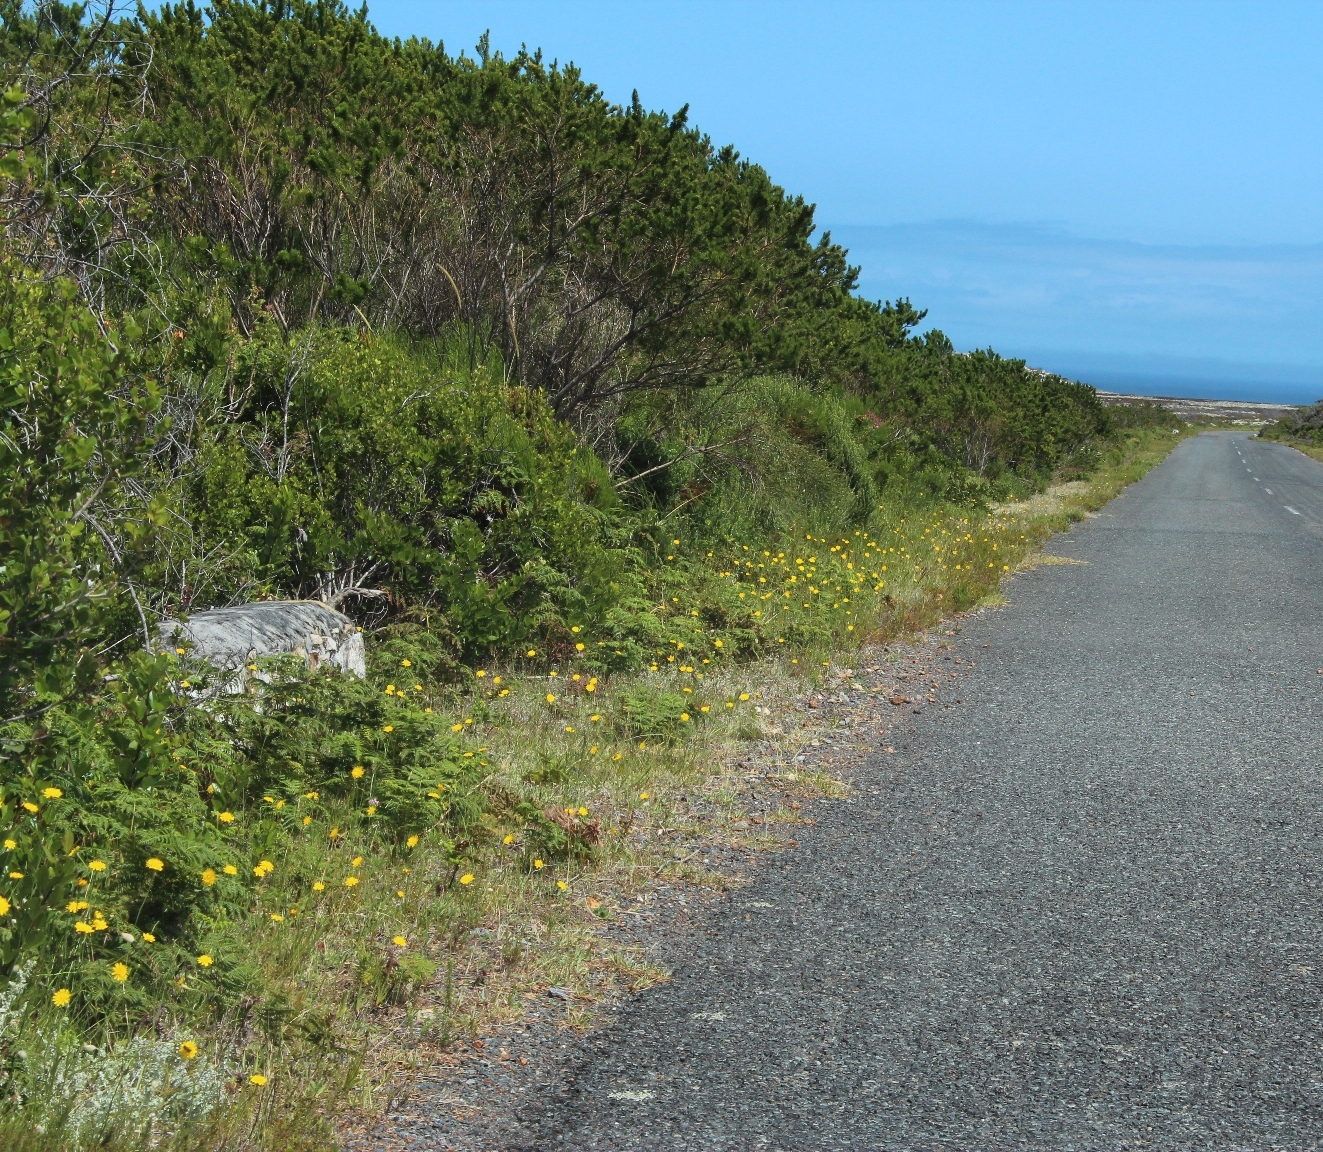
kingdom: Plantae
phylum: Tracheophyta
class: Magnoliopsida
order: Asterales
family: Asteraceae
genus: Hypochaeris
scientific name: Hypochaeris radicata
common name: Flatweed
